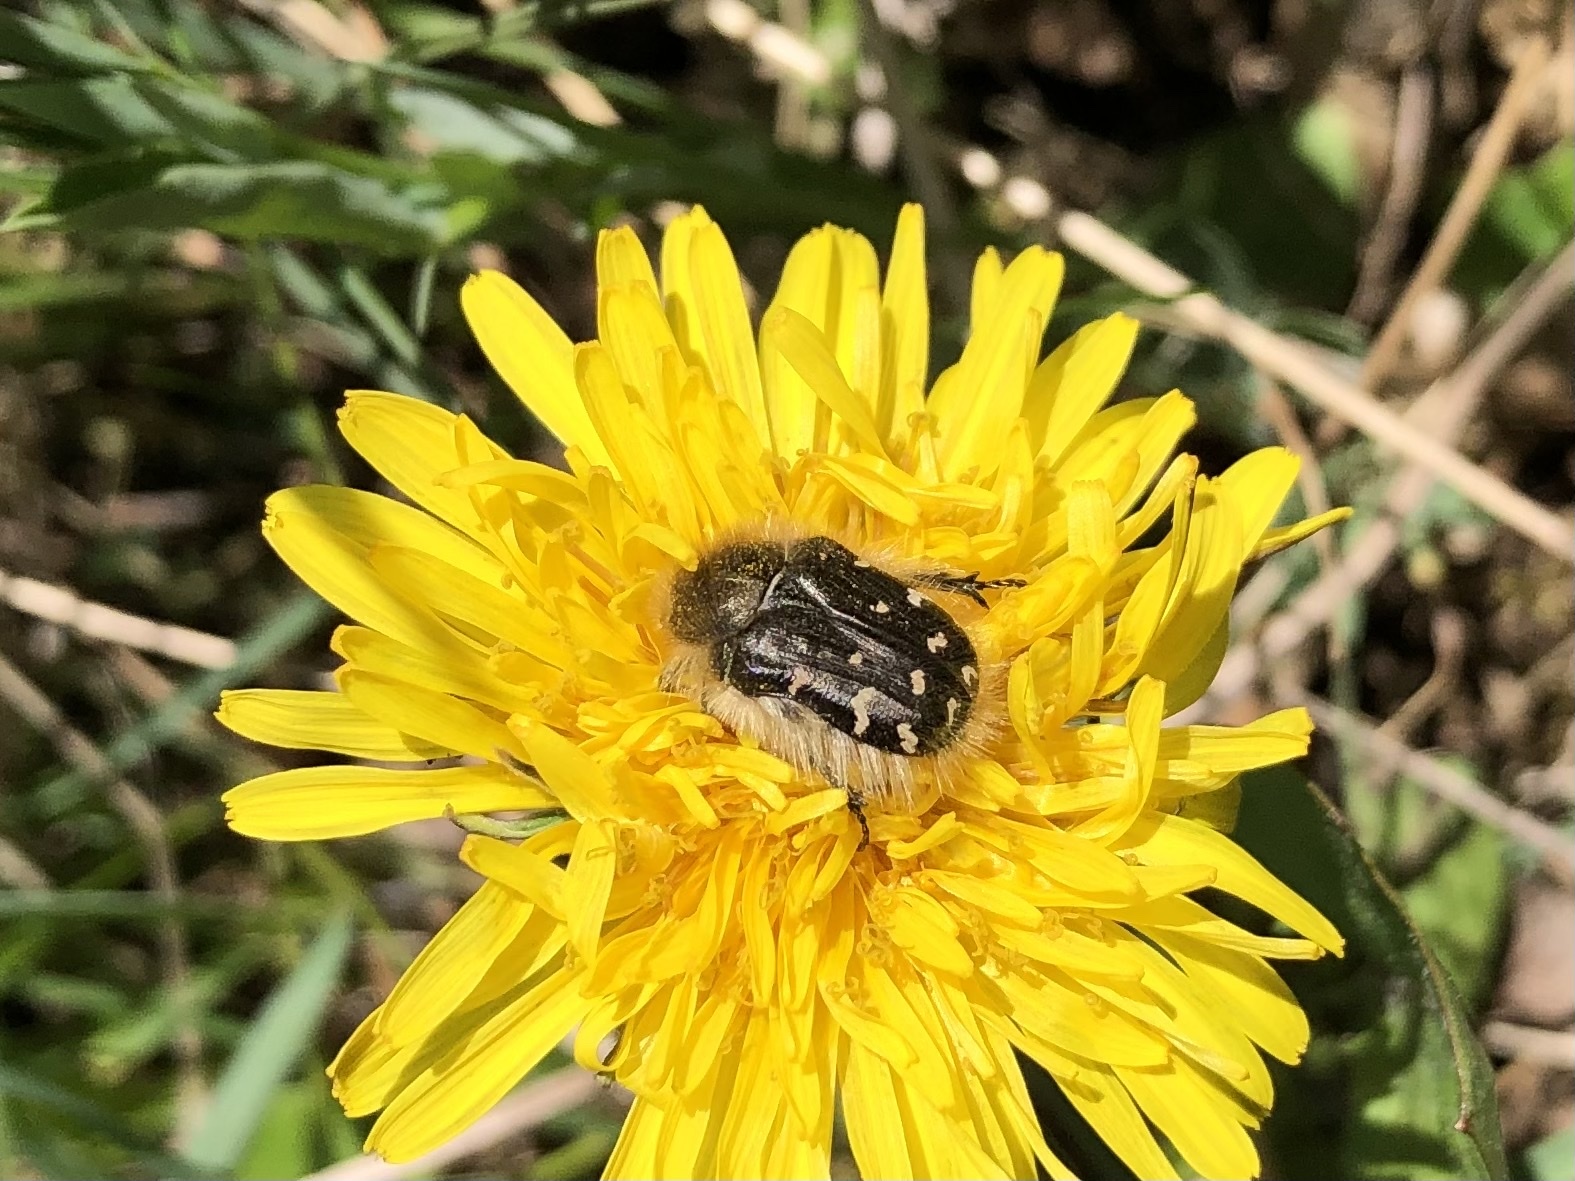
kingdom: Animalia
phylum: Arthropoda
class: Insecta
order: Coleoptera
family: Scarabaeidae
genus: Tropinota
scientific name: Tropinota hirta
